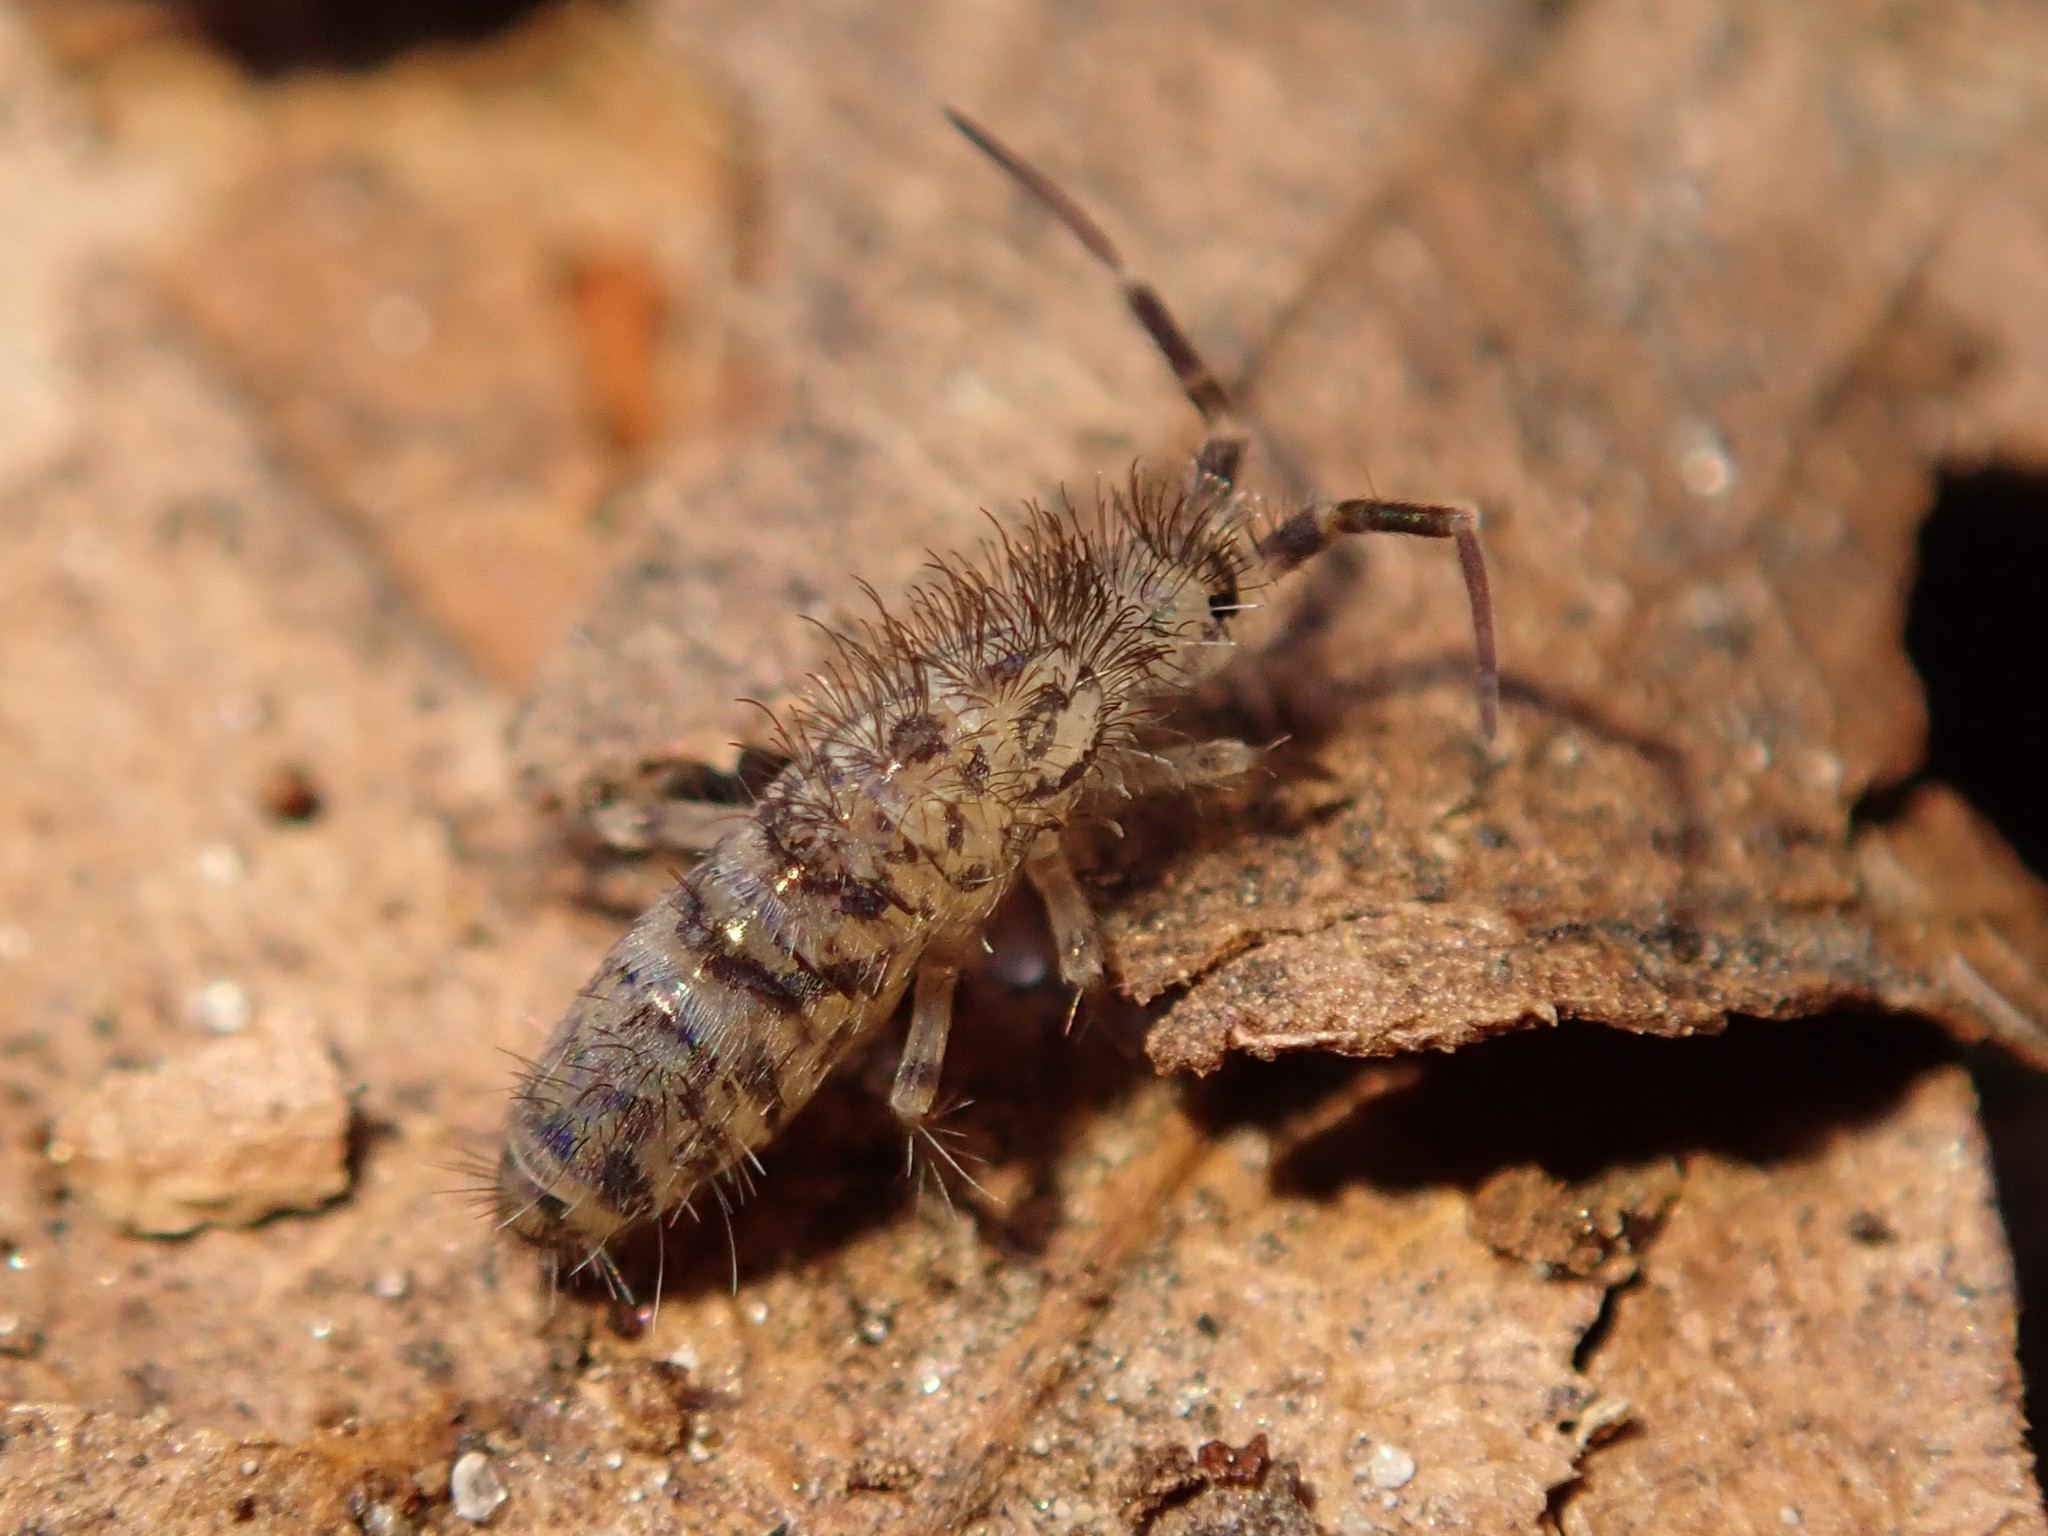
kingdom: Animalia
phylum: Arthropoda
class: Collembola
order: Entomobryomorpha
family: Orchesellidae
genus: Orchesella
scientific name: Orchesella villosa
